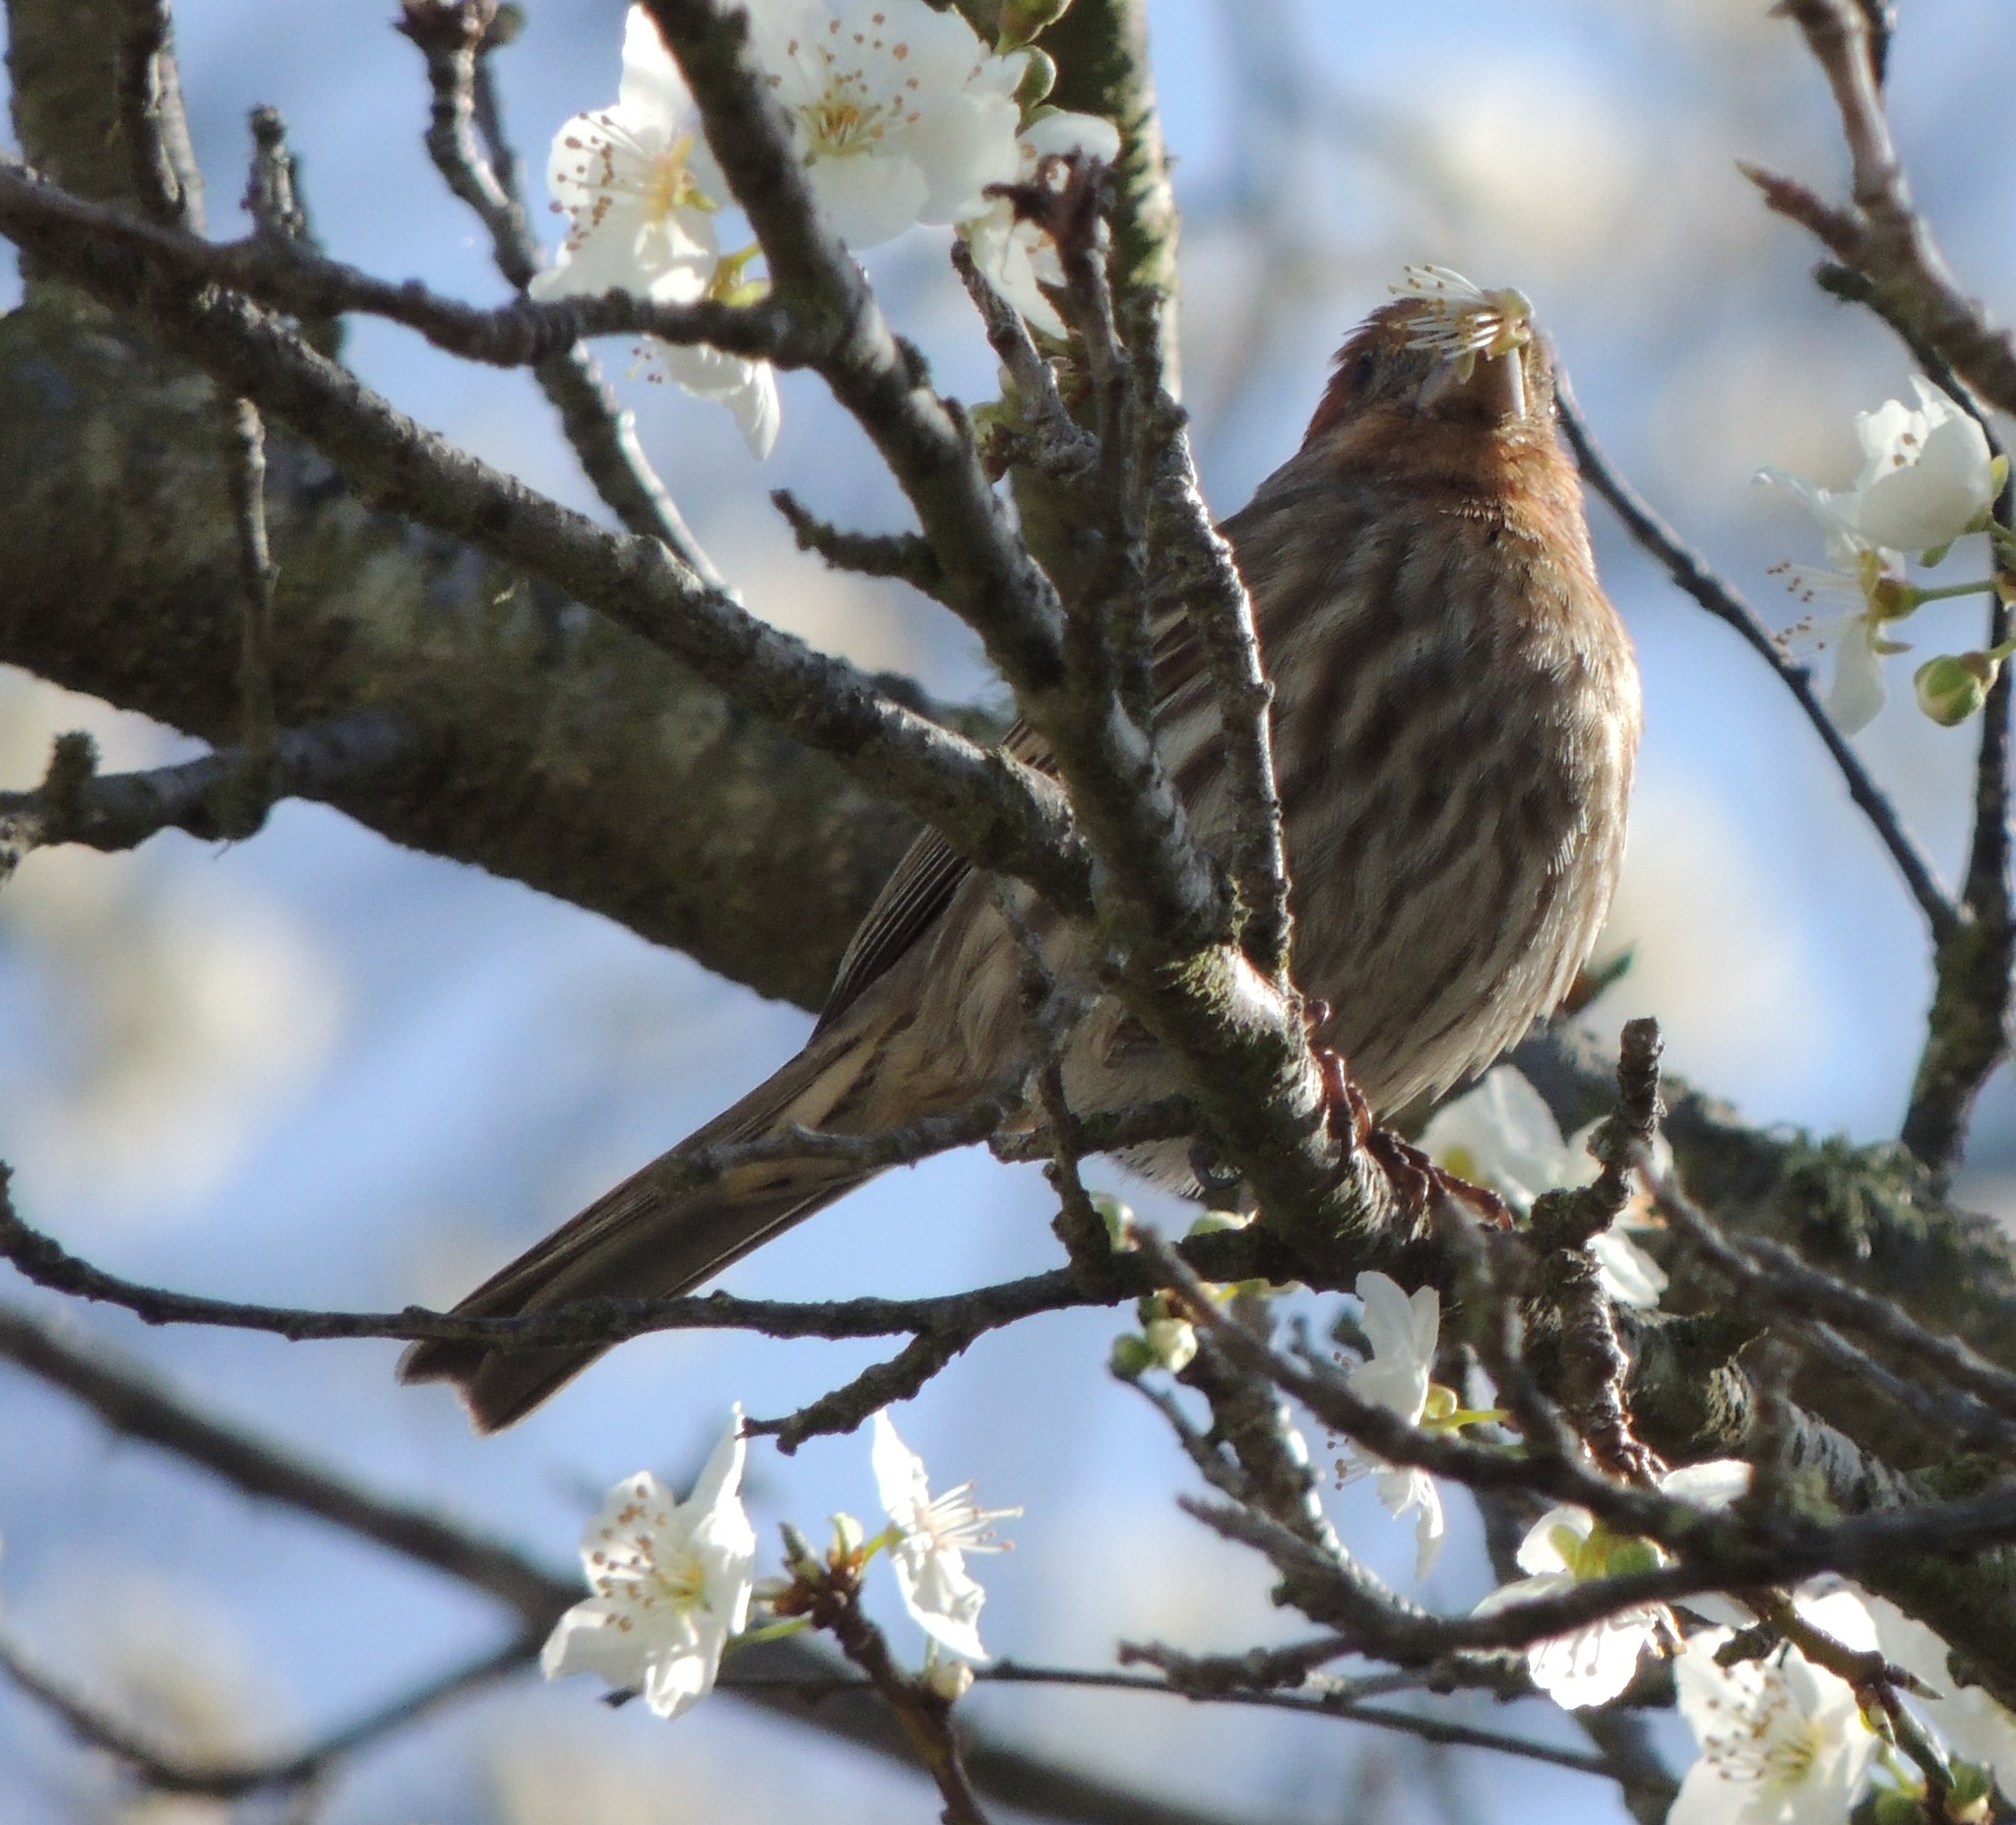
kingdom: Animalia
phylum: Chordata
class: Aves
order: Passeriformes
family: Fringillidae
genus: Haemorhous
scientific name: Haemorhous mexicanus
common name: House finch
